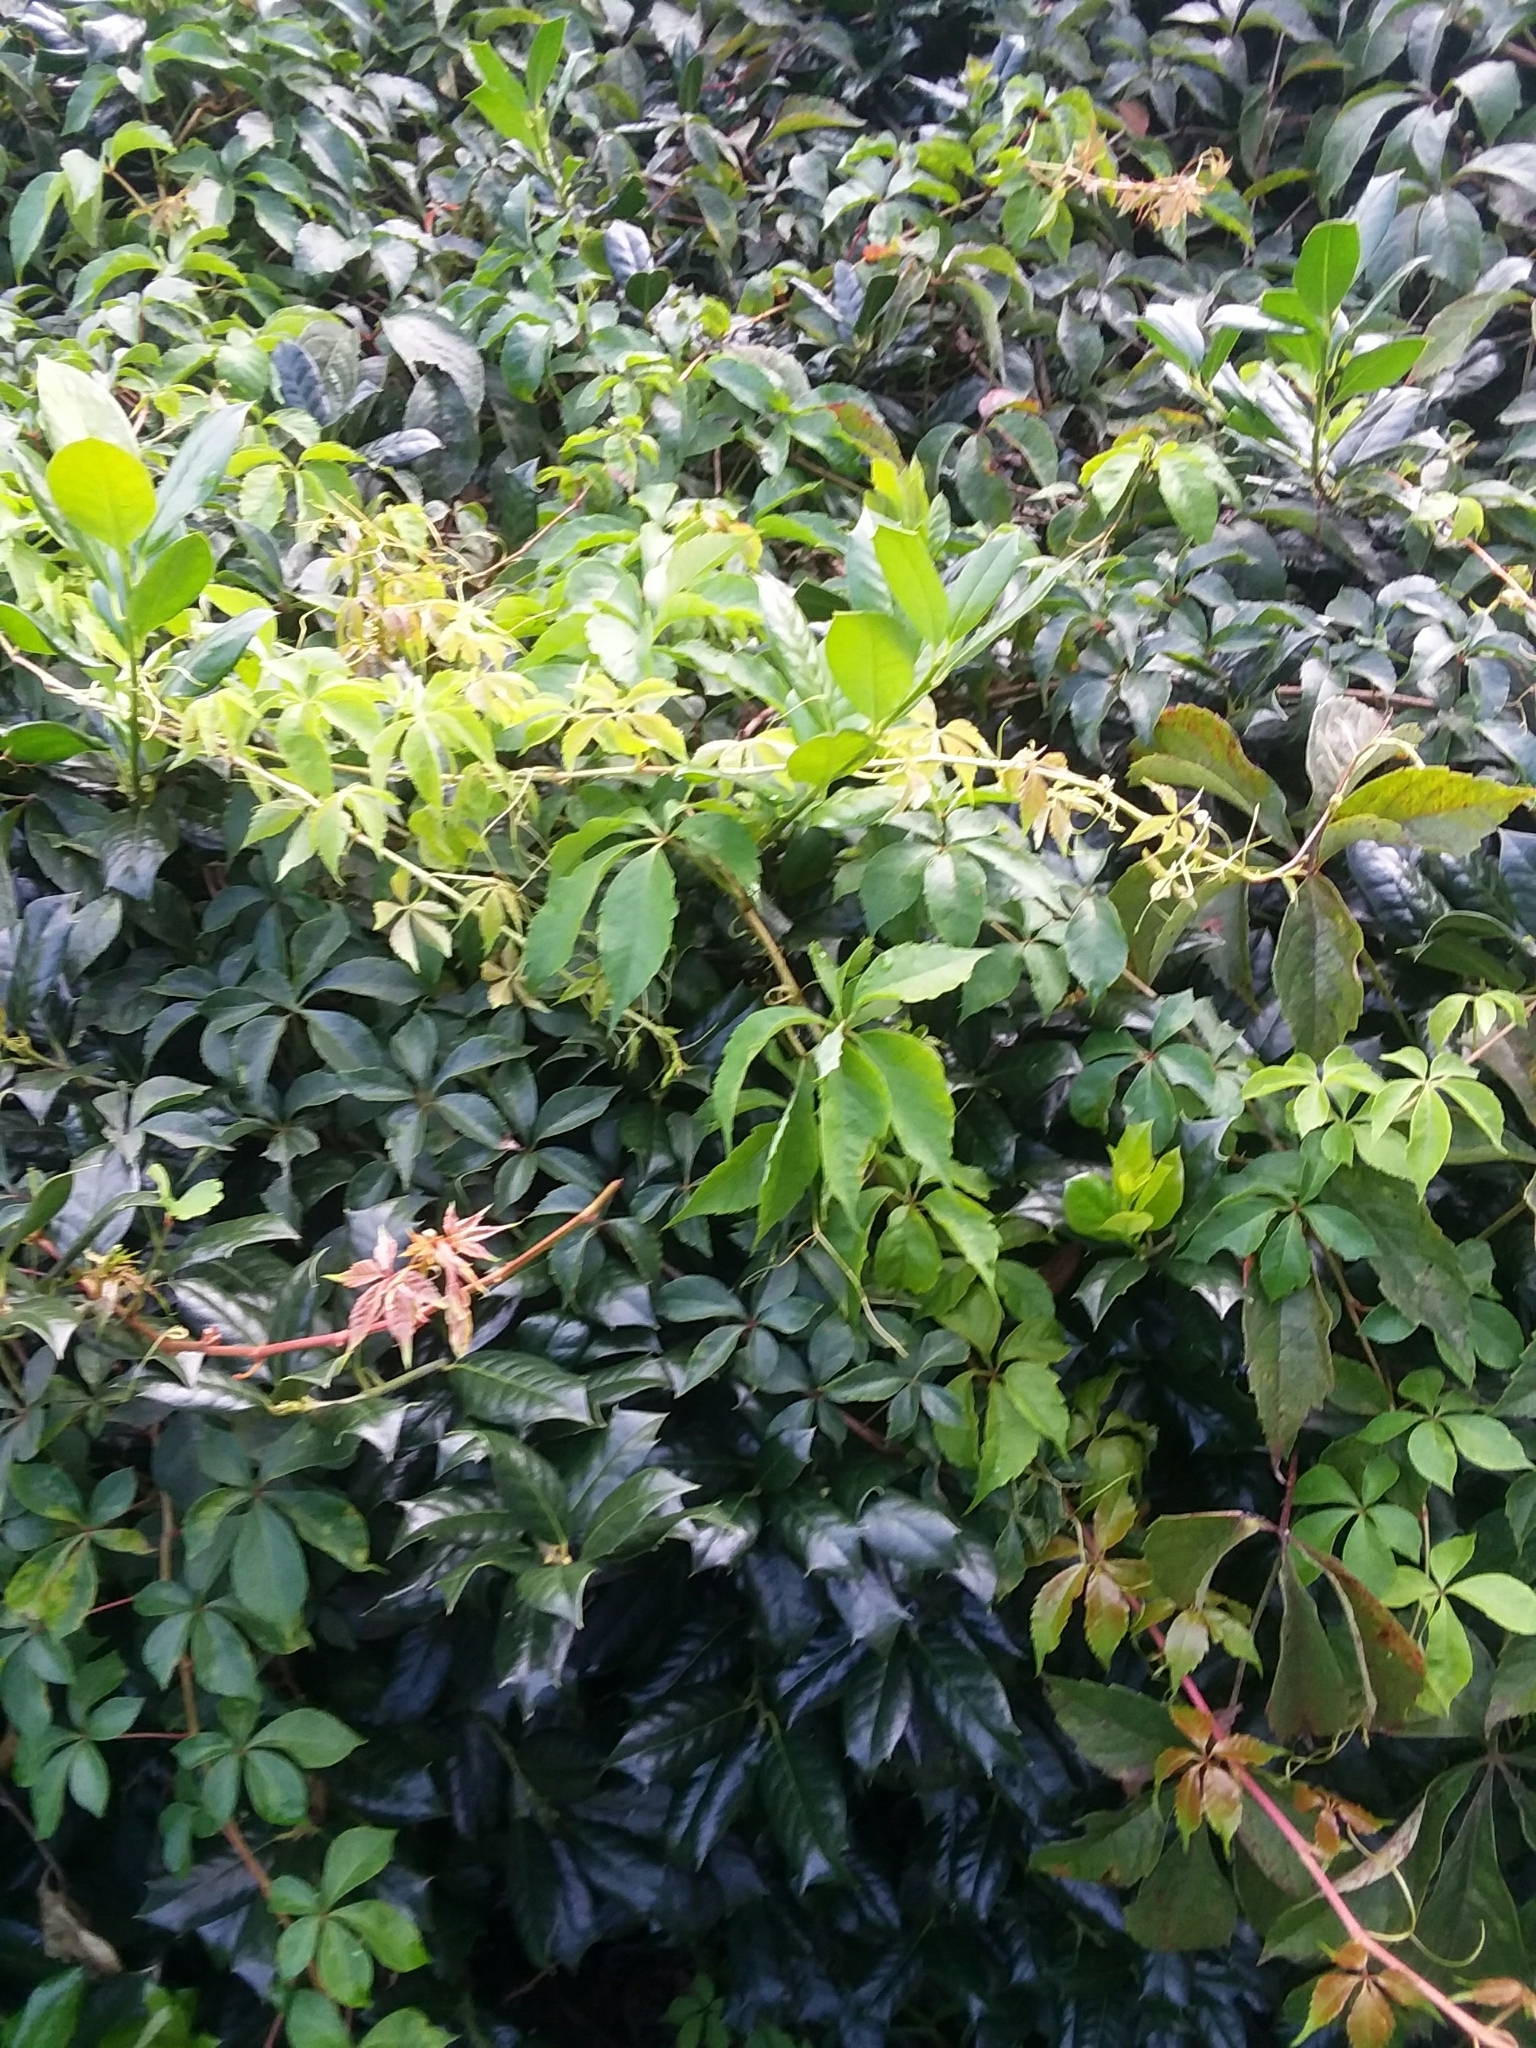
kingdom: Plantae
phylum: Tracheophyta
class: Magnoliopsida
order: Vitales
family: Vitaceae
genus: Parthenocissus
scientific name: Parthenocissus quinquefolia
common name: Virginia-creeper
